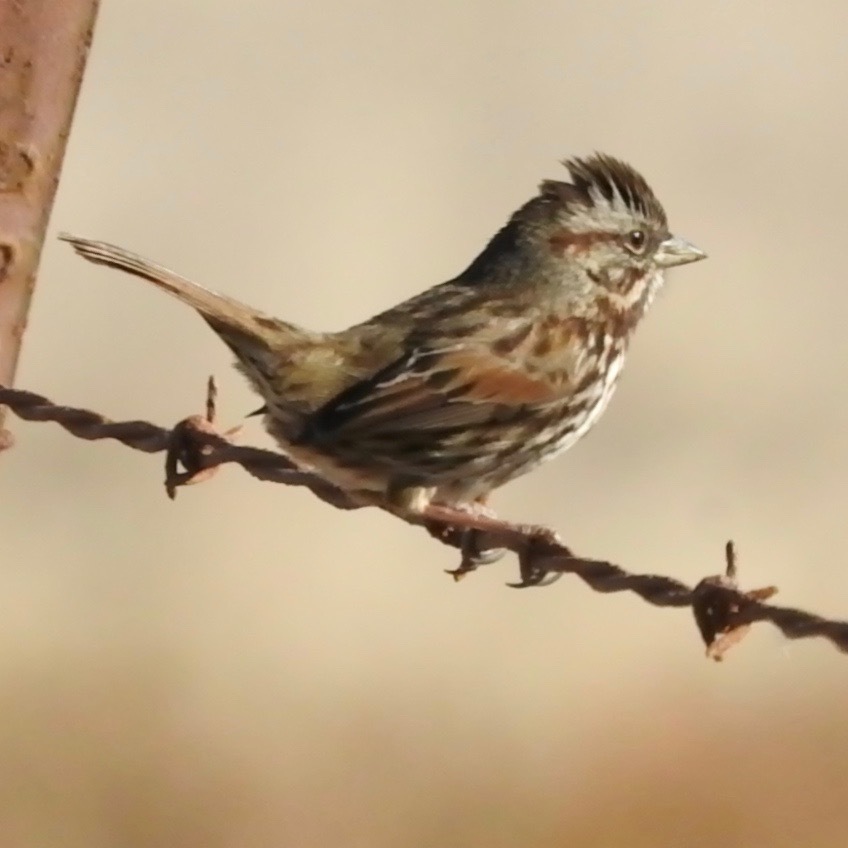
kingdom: Animalia
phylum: Chordata
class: Aves
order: Passeriformes
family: Passerellidae
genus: Melospiza
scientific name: Melospiza melodia
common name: Song sparrow
